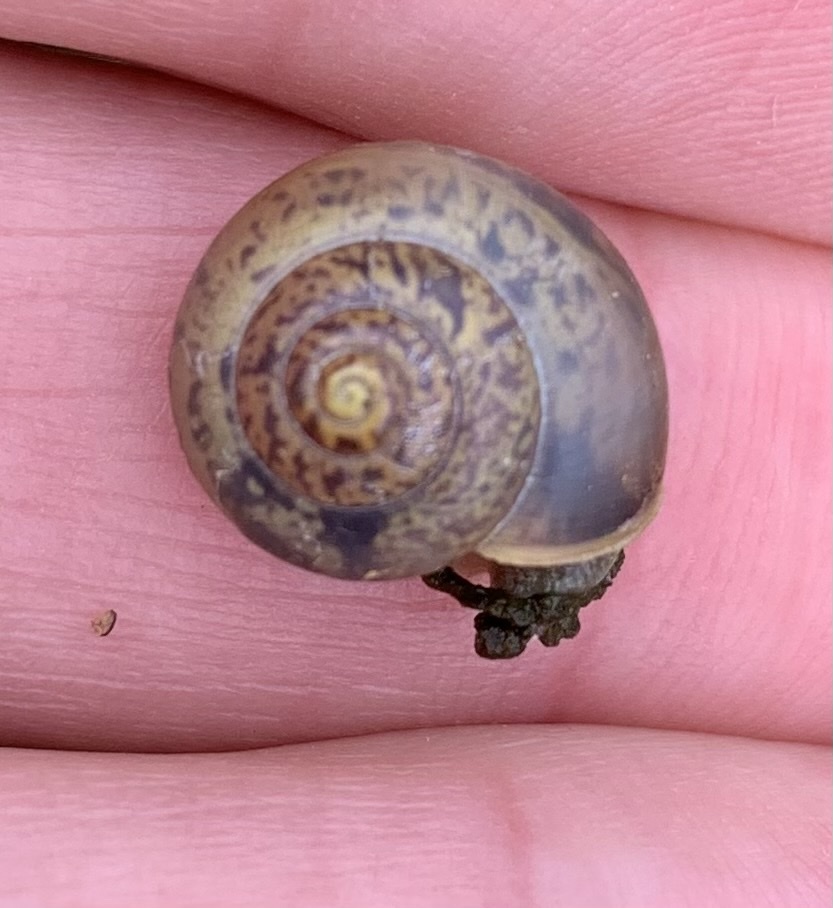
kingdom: Animalia
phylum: Mollusca
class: Gastropoda
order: Stylommatophora
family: Camaenidae
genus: Fruticicola
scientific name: Fruticicola fruticum
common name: Bush snail
